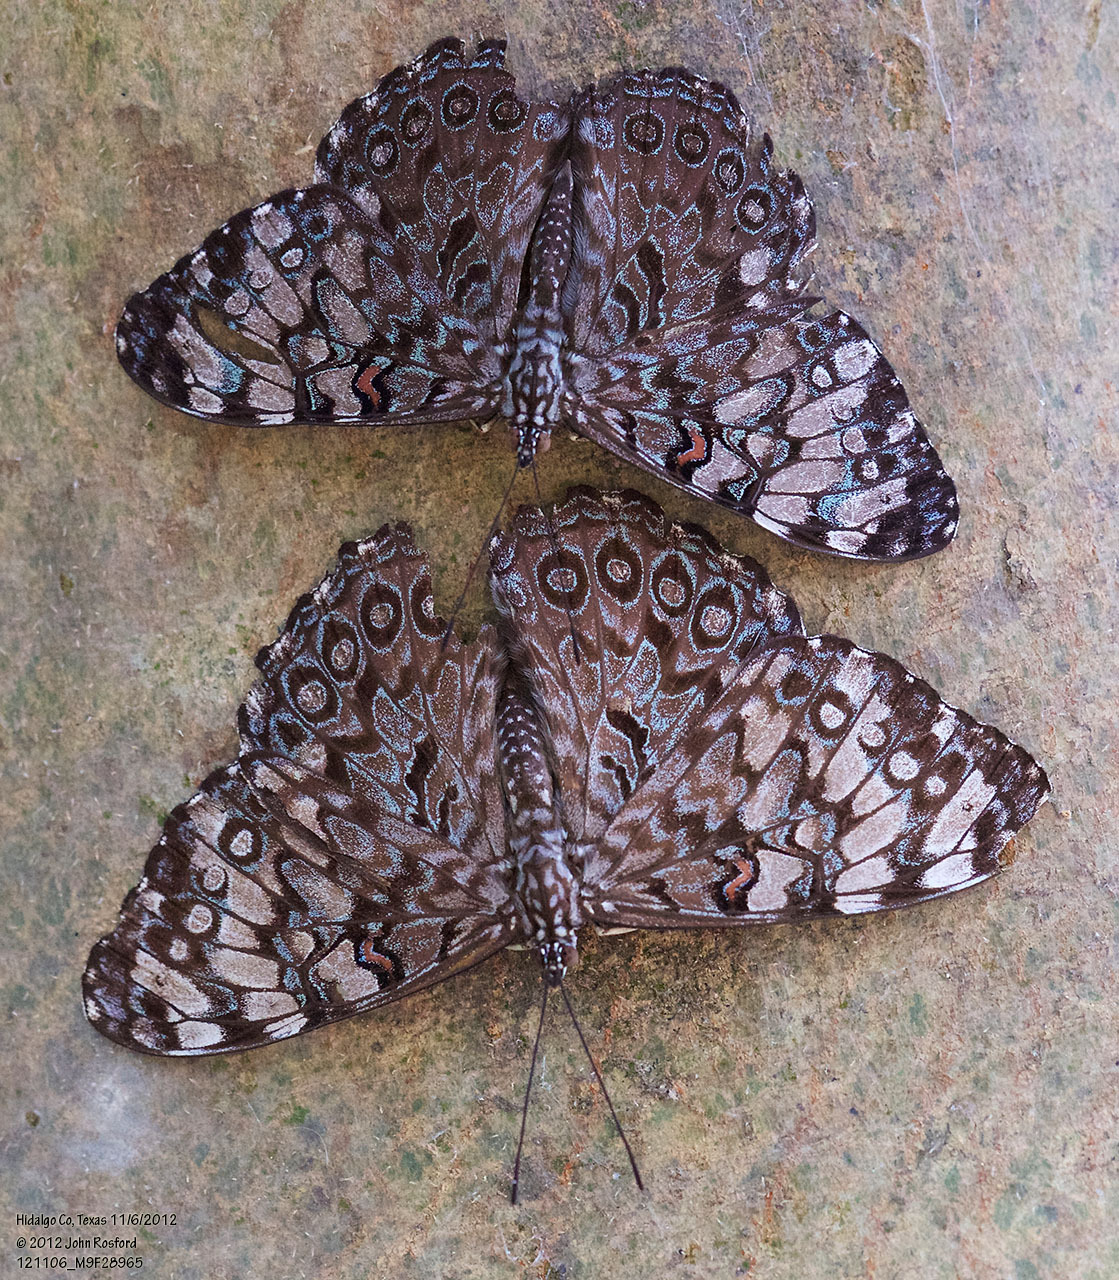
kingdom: Animalia
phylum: Arthropoda
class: Insecta
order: Lepidoptera
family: Nymphalidae
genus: Hamadryas
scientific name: Hamadryas guatemalena
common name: Guatemalan cracker
